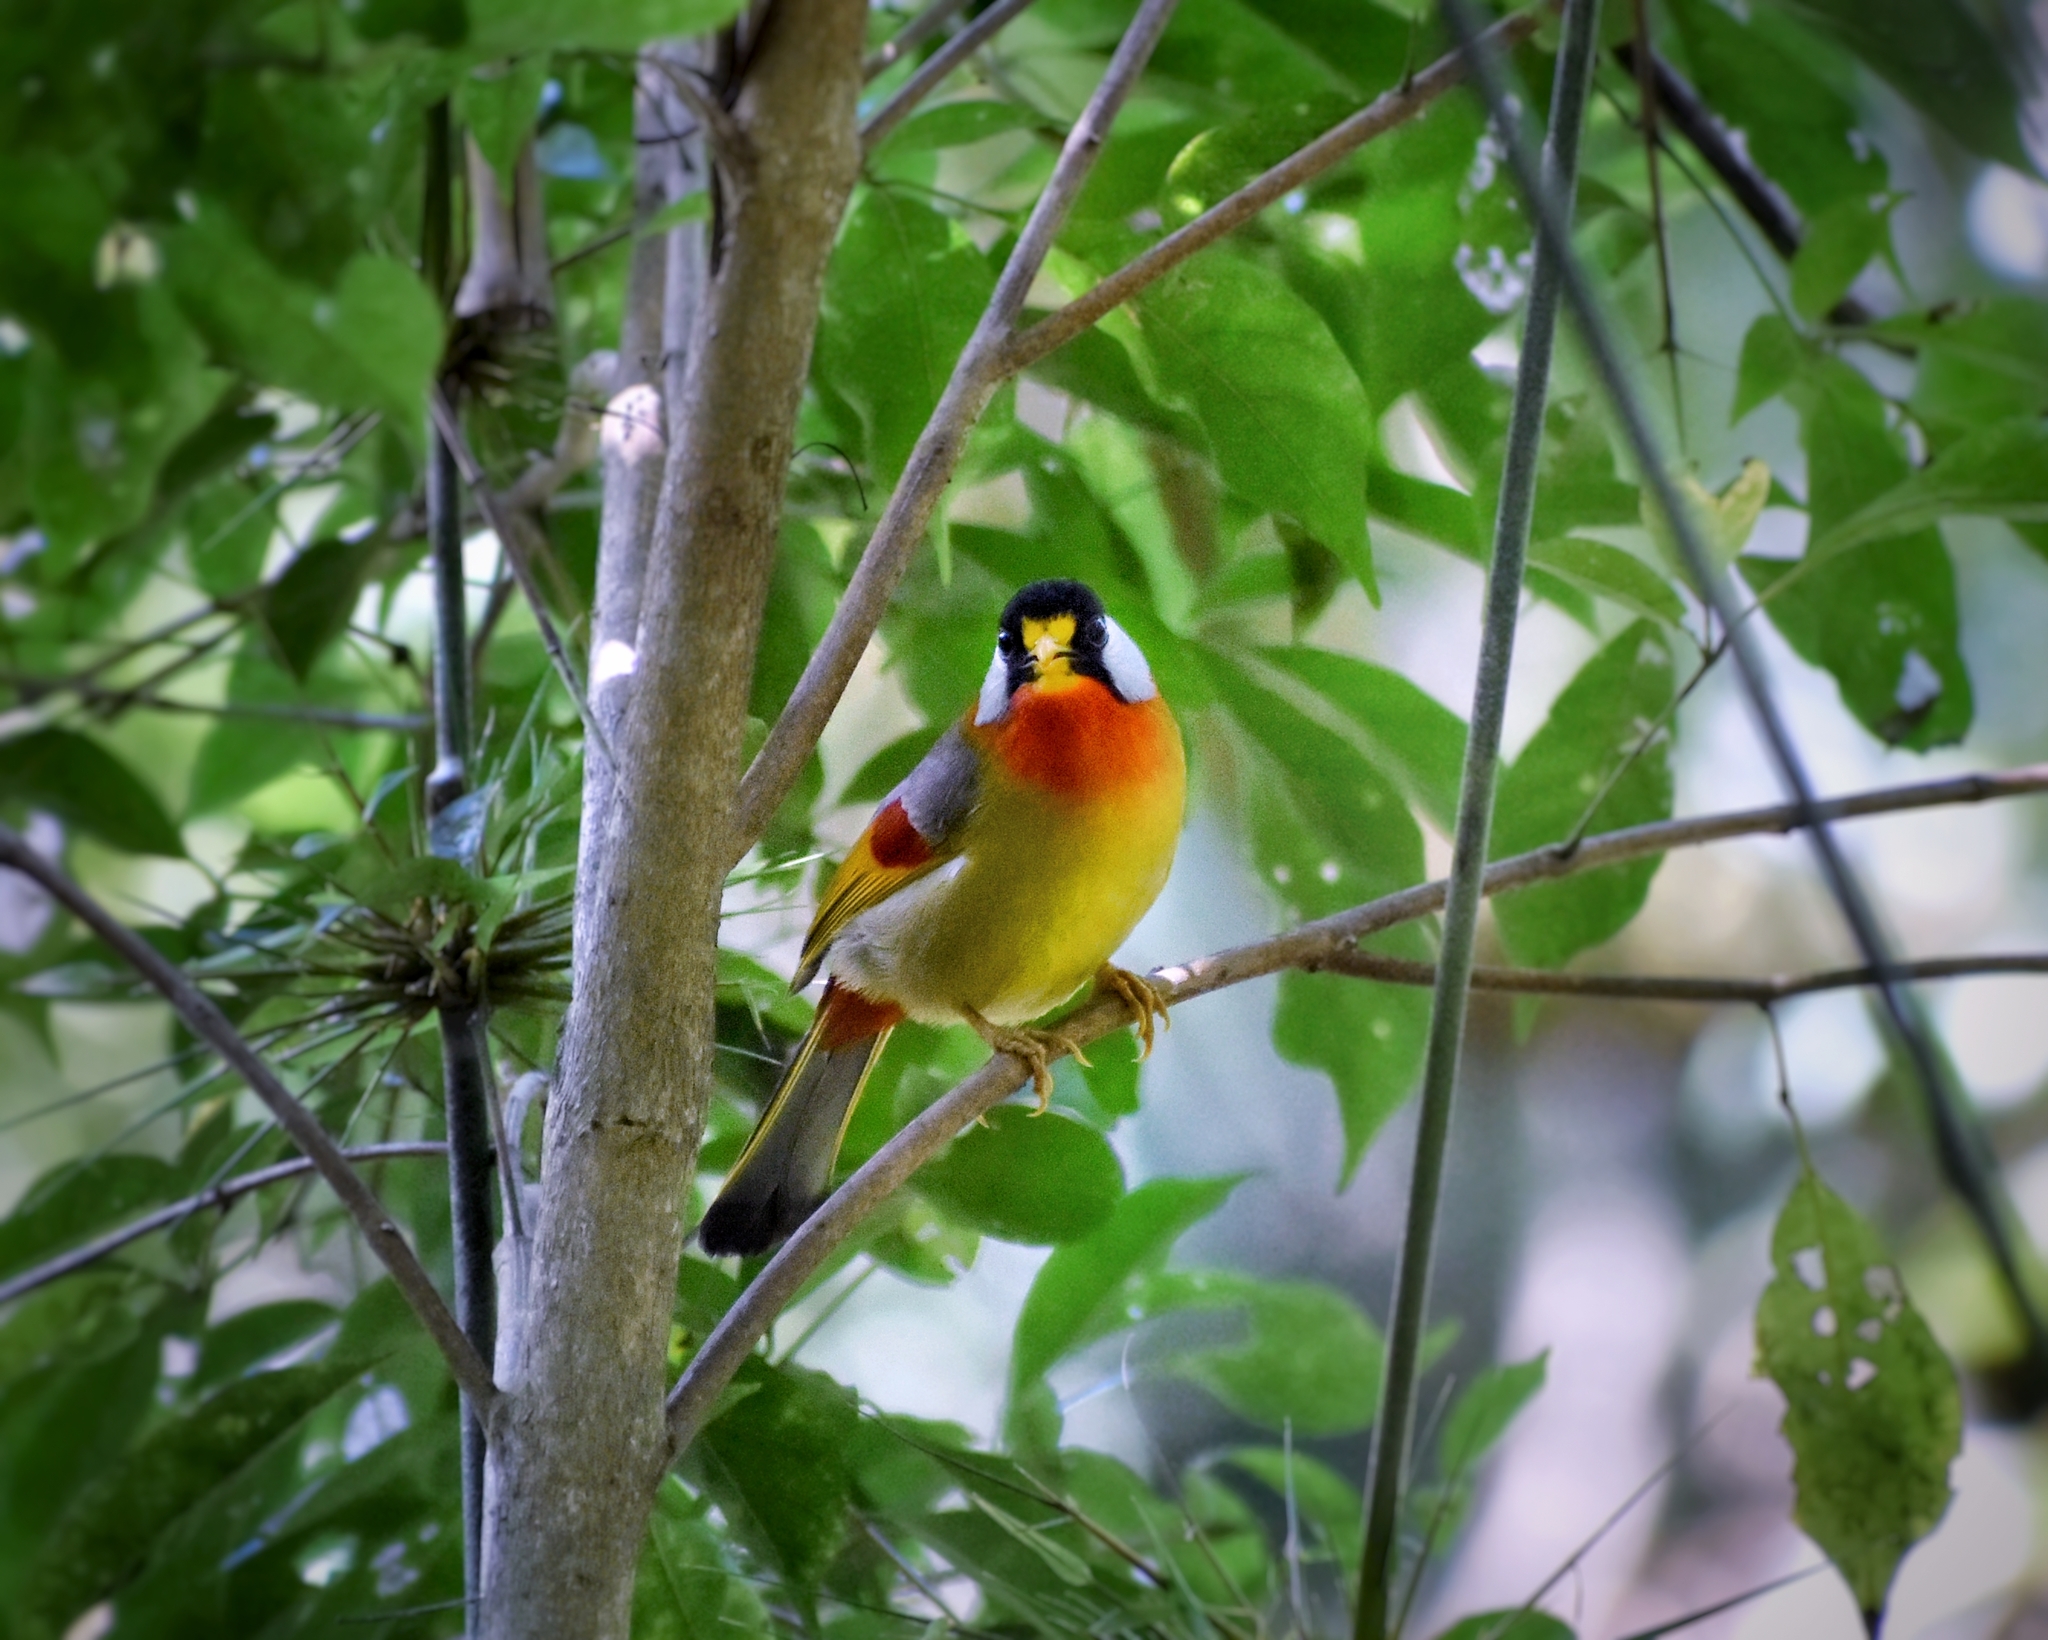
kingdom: Animalia
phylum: Chordata
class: Aves
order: Passeriformes
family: Leiothrichidae
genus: Leiothrix
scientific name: Leiothrix argentauris
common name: Silver-eared mesia
